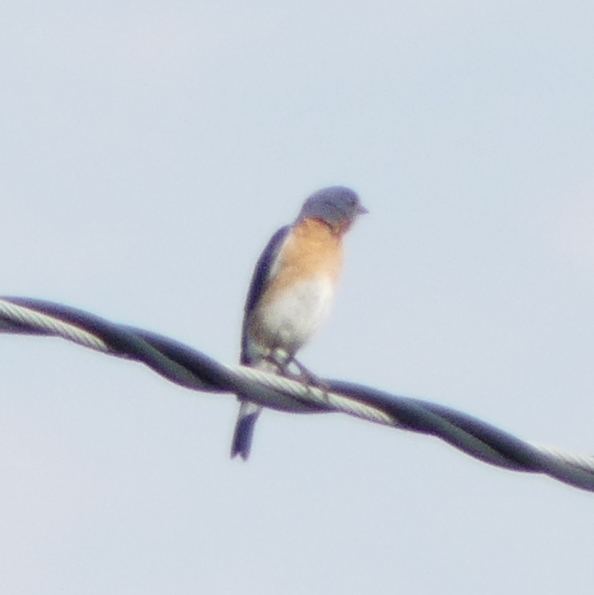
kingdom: Animalia
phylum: Chordata
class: Aves
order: Passeriformes
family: Turdidae
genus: Sialia
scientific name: Sialia sialis
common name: Eastern bluebird
